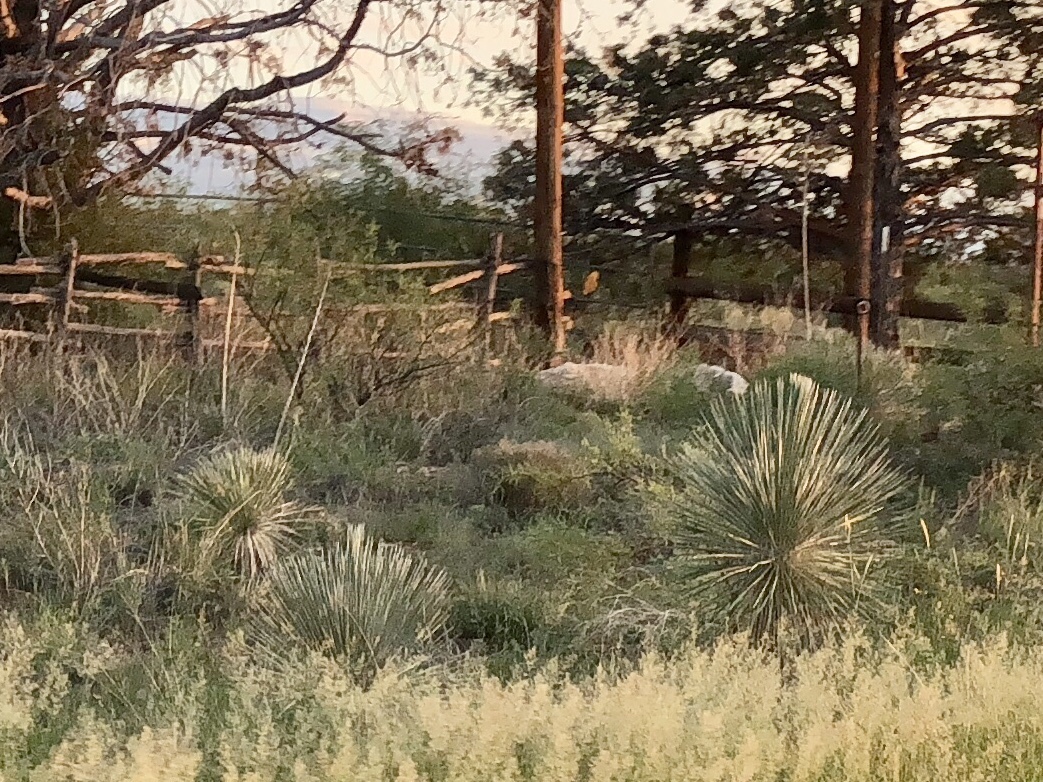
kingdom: Plantae
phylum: Tracheophyta
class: Liliopsida
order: Asparagales
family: Asparagaceae
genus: Yucca
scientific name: Yucca elata
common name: Palmella
